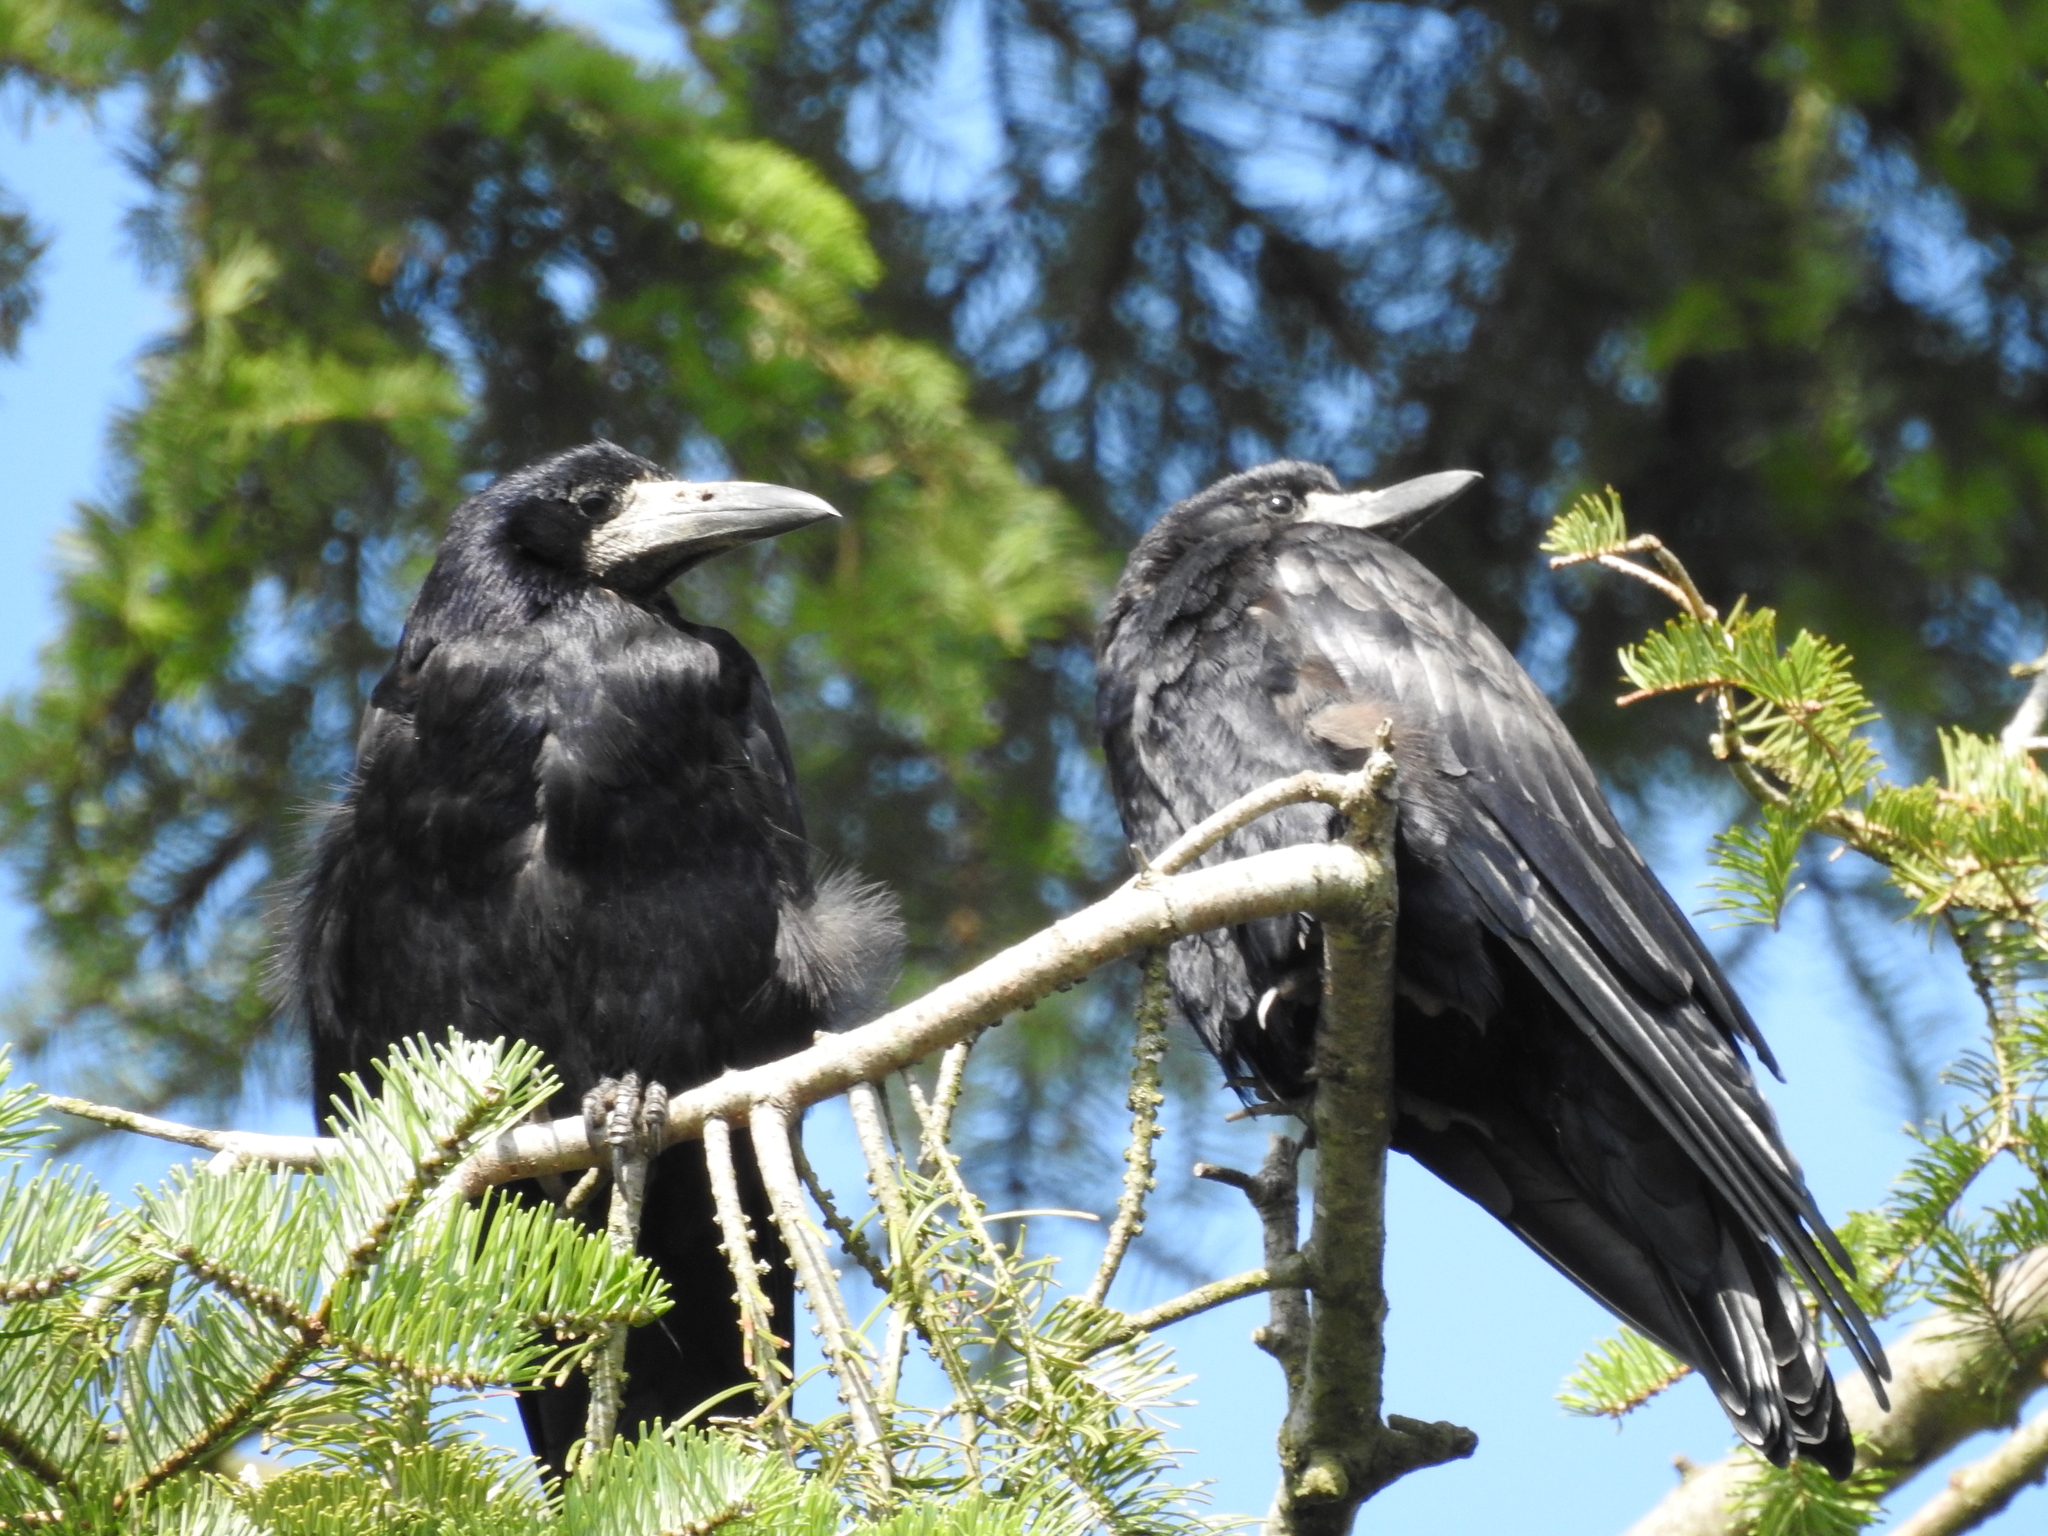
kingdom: Animalia
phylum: Chordata
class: Aves
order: Passeriformes
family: Corvidae
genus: Corvus
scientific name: Corvus frugilegus
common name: Rook
